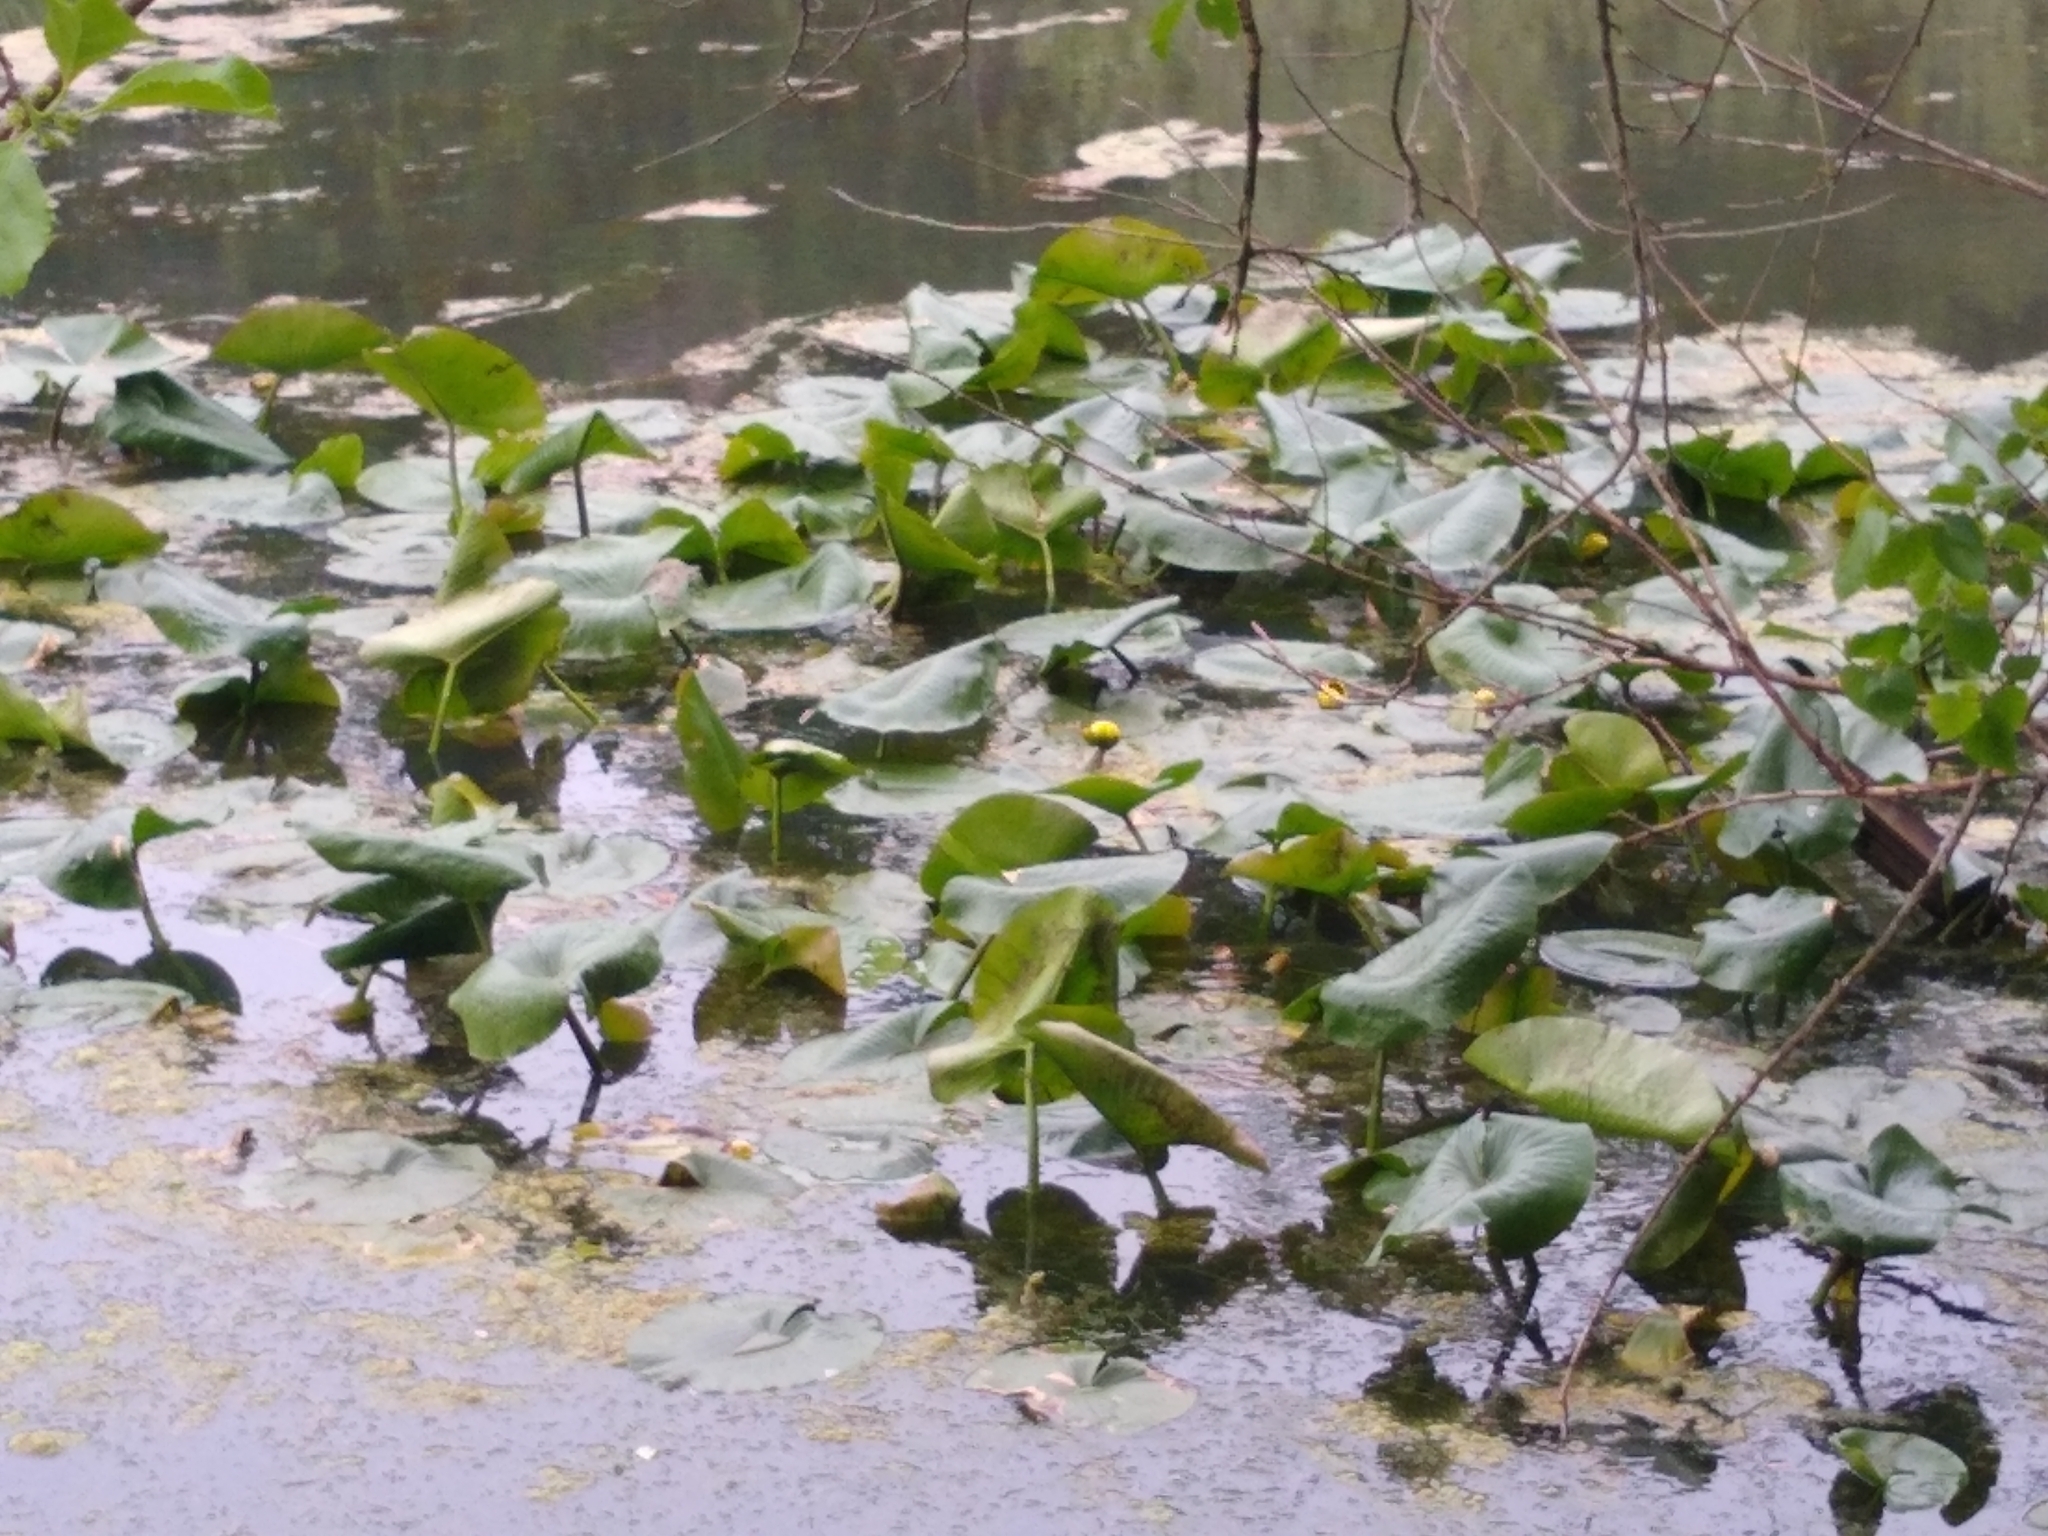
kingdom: Plantae
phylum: Tracheophyta
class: Magnoliopsida
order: Nymphaeales
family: Nymphaeaceae
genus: Nuphar
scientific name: Nuphar advena
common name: Spatter-dock
